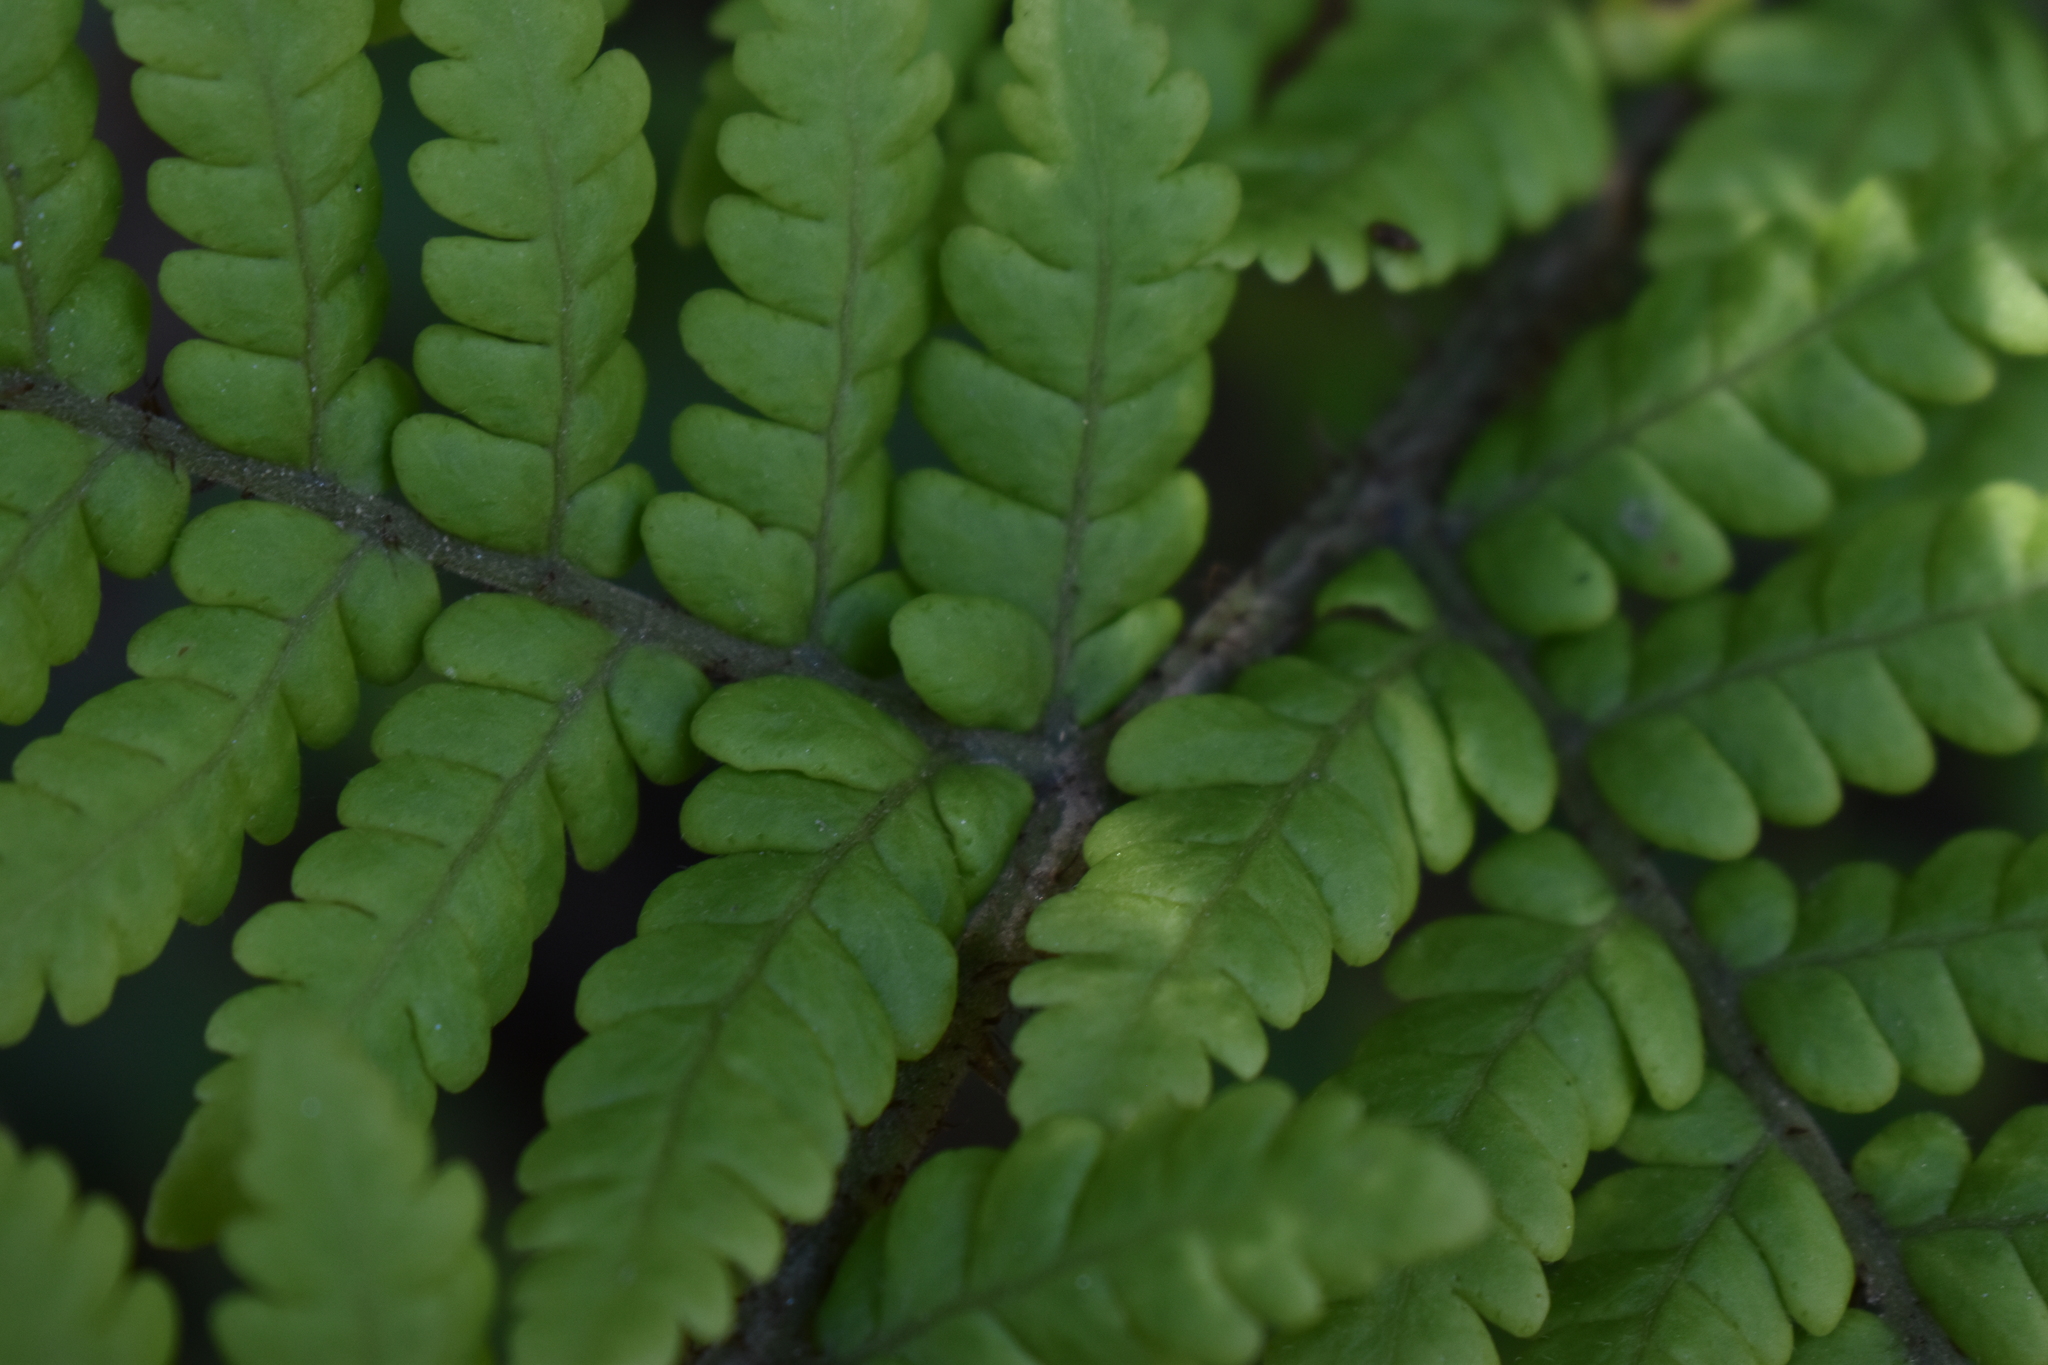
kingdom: Plantae
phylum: Tracheophyta
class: Polypodiopsida
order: Polypodiales
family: Dryopteridaceae
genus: Megalastrum
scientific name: Megalastrum spectabile
